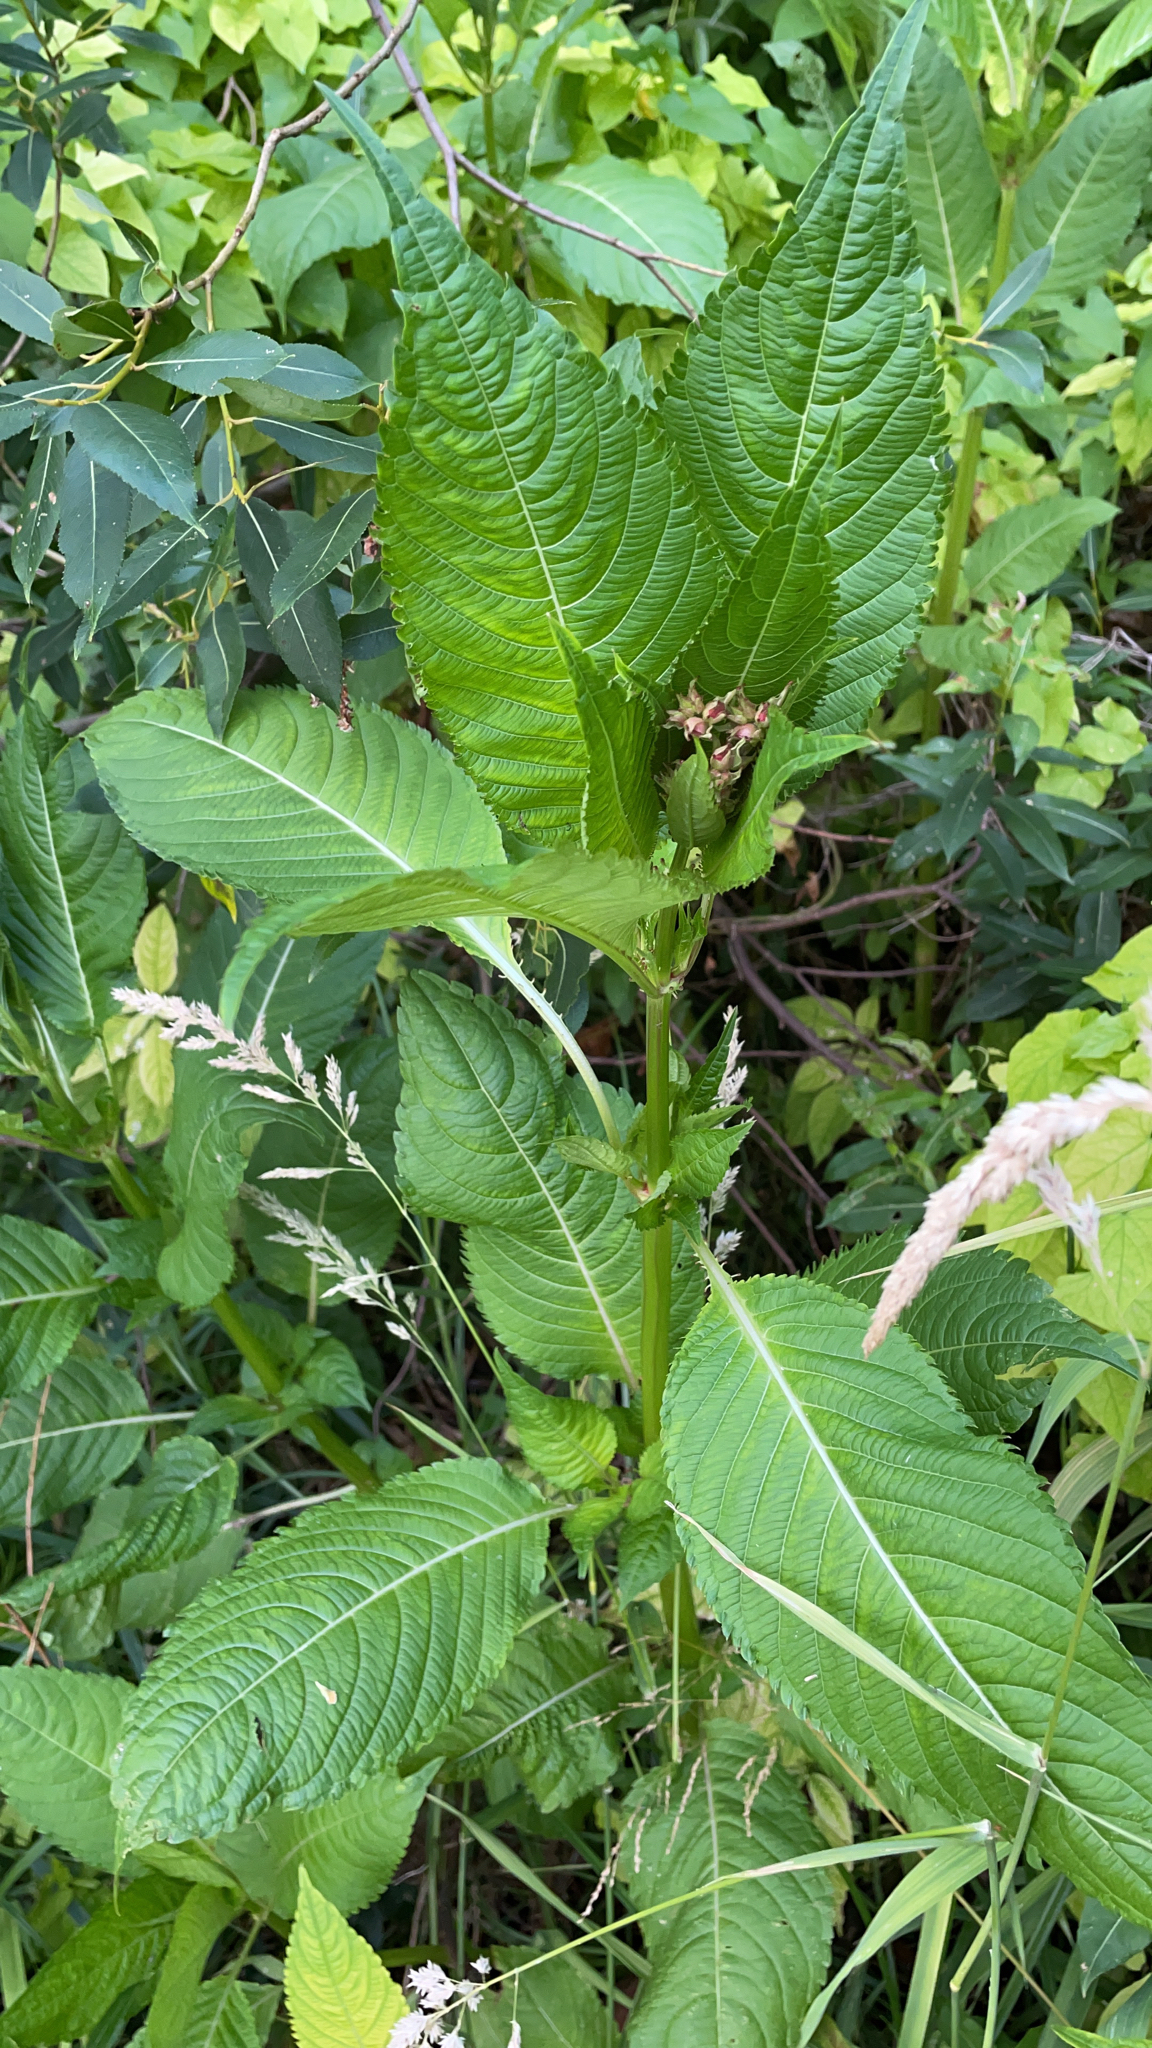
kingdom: Plantae
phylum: Tracheophyta
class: Magnoliopsida
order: Ericales
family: Balsaminaceae
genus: Impatiens
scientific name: Impatiens glandulifera
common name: Himalayan balsam
